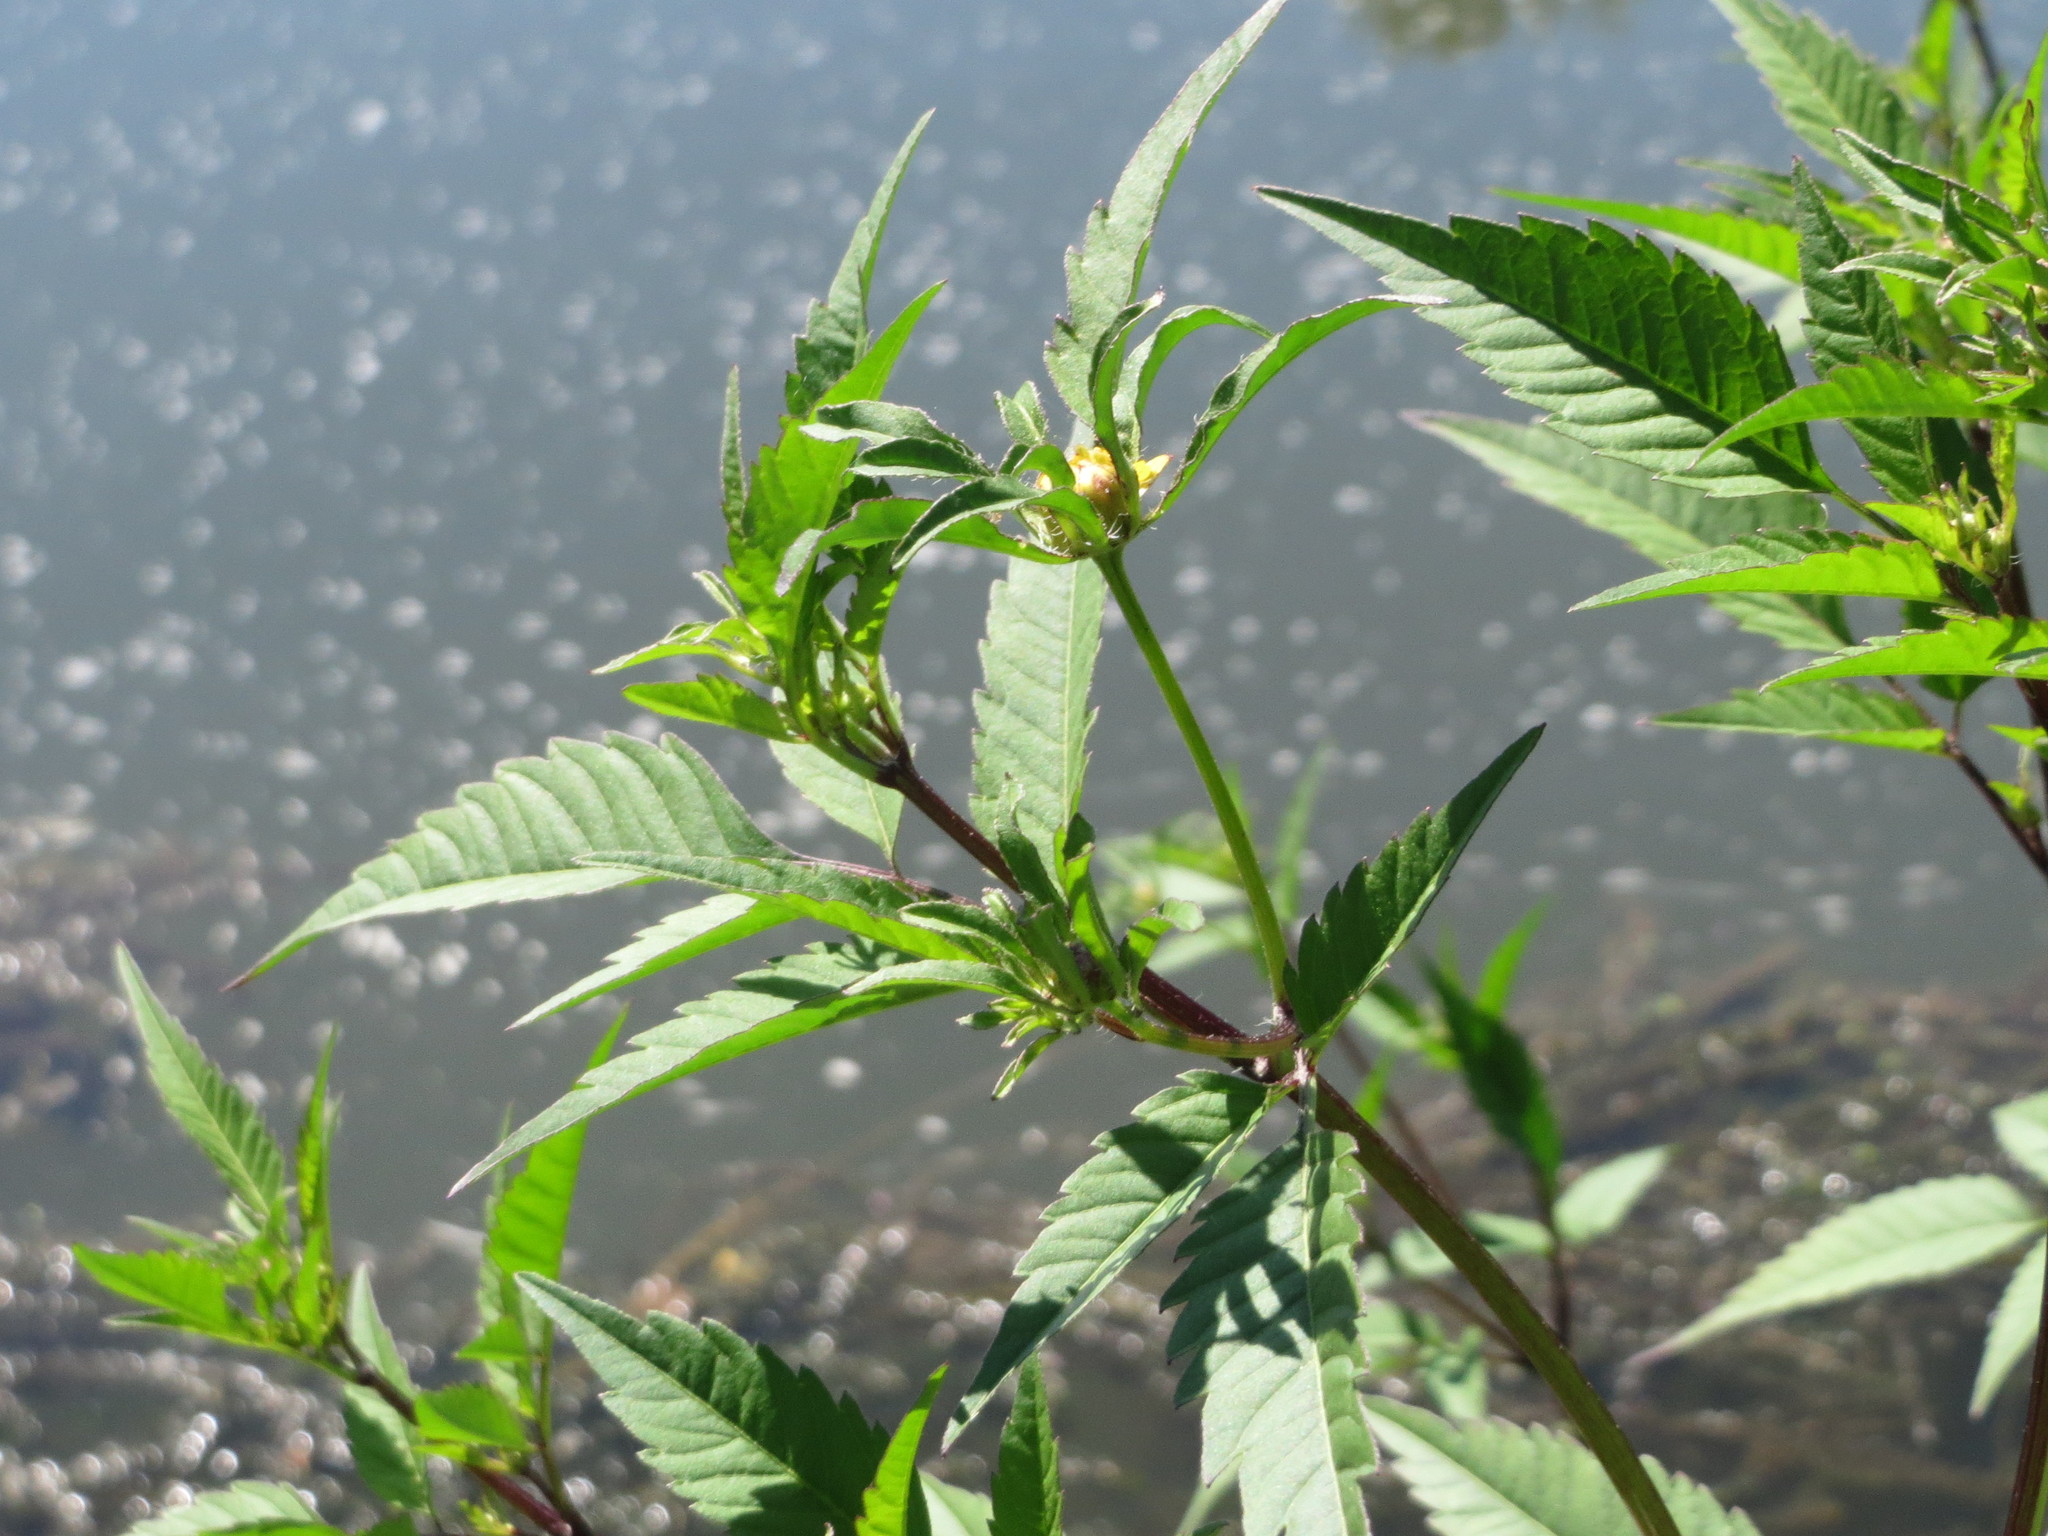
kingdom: Plantae
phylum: Tracheophyta
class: Magnoliopsida
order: Asterales
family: Asteraceae
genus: Bidens
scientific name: Bidens frondosa
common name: Beggarticks
